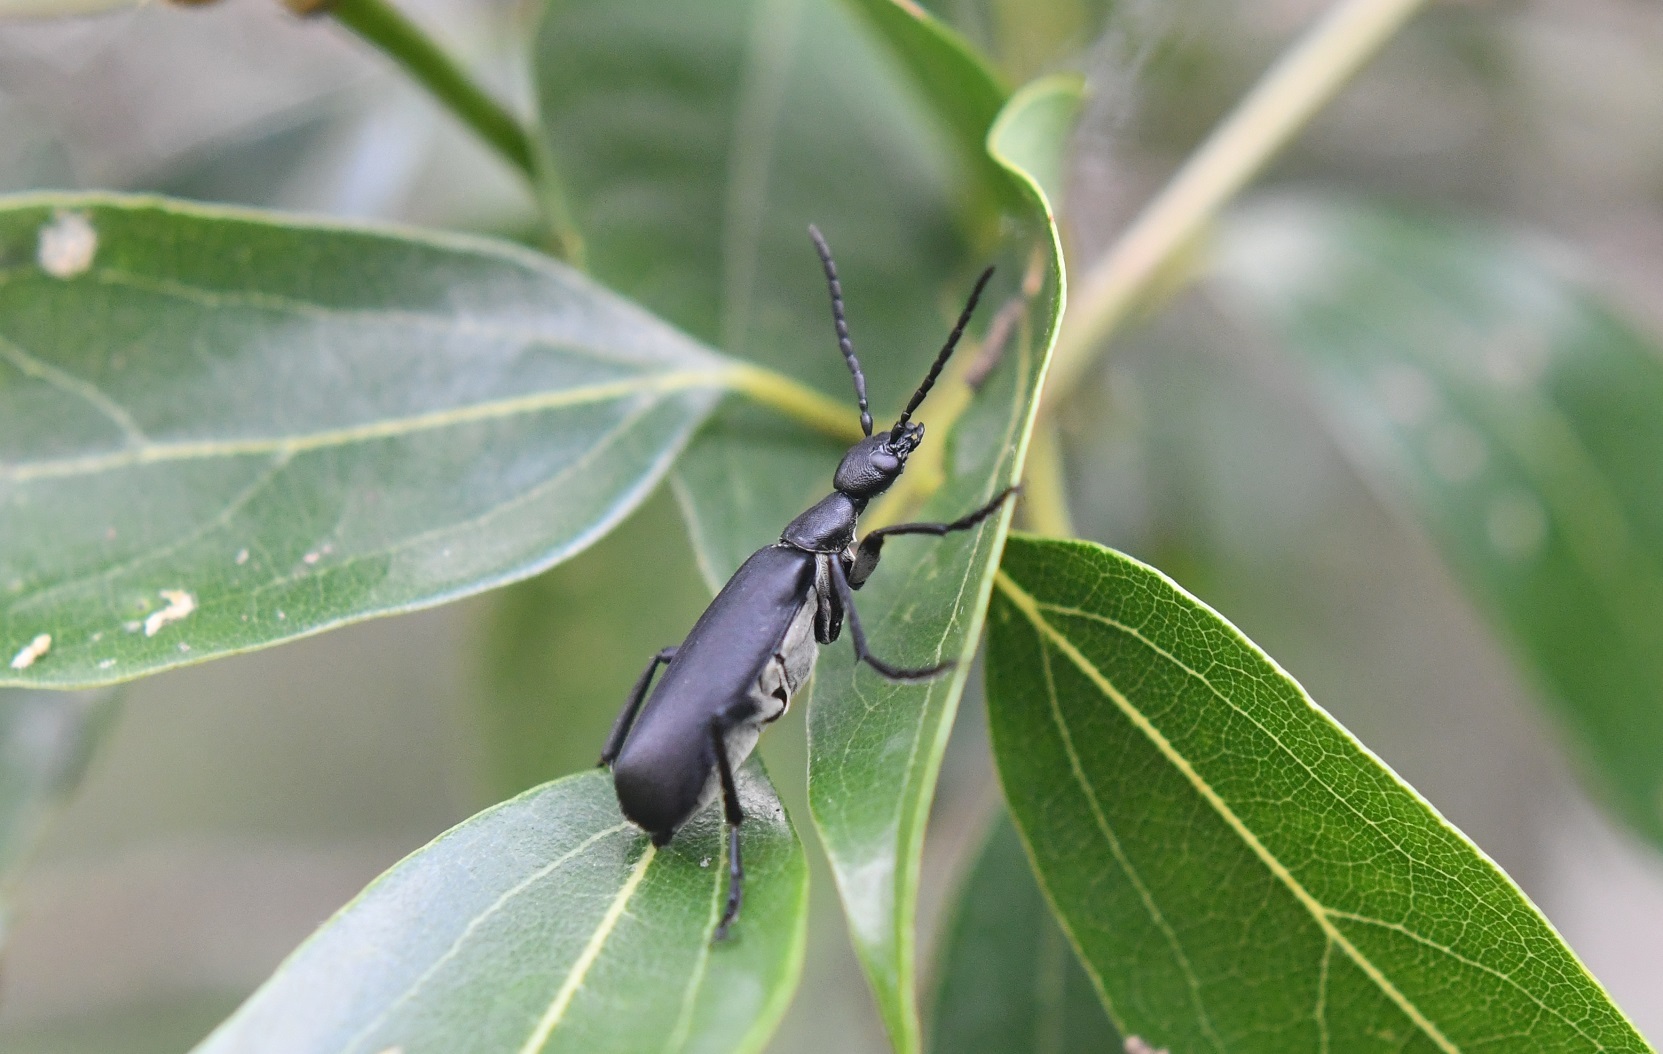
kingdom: Animalia
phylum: Arthropoda
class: Insecta
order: Coleoptera
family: Meloidae
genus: Epicauta
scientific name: Epicauta cinereiventris
